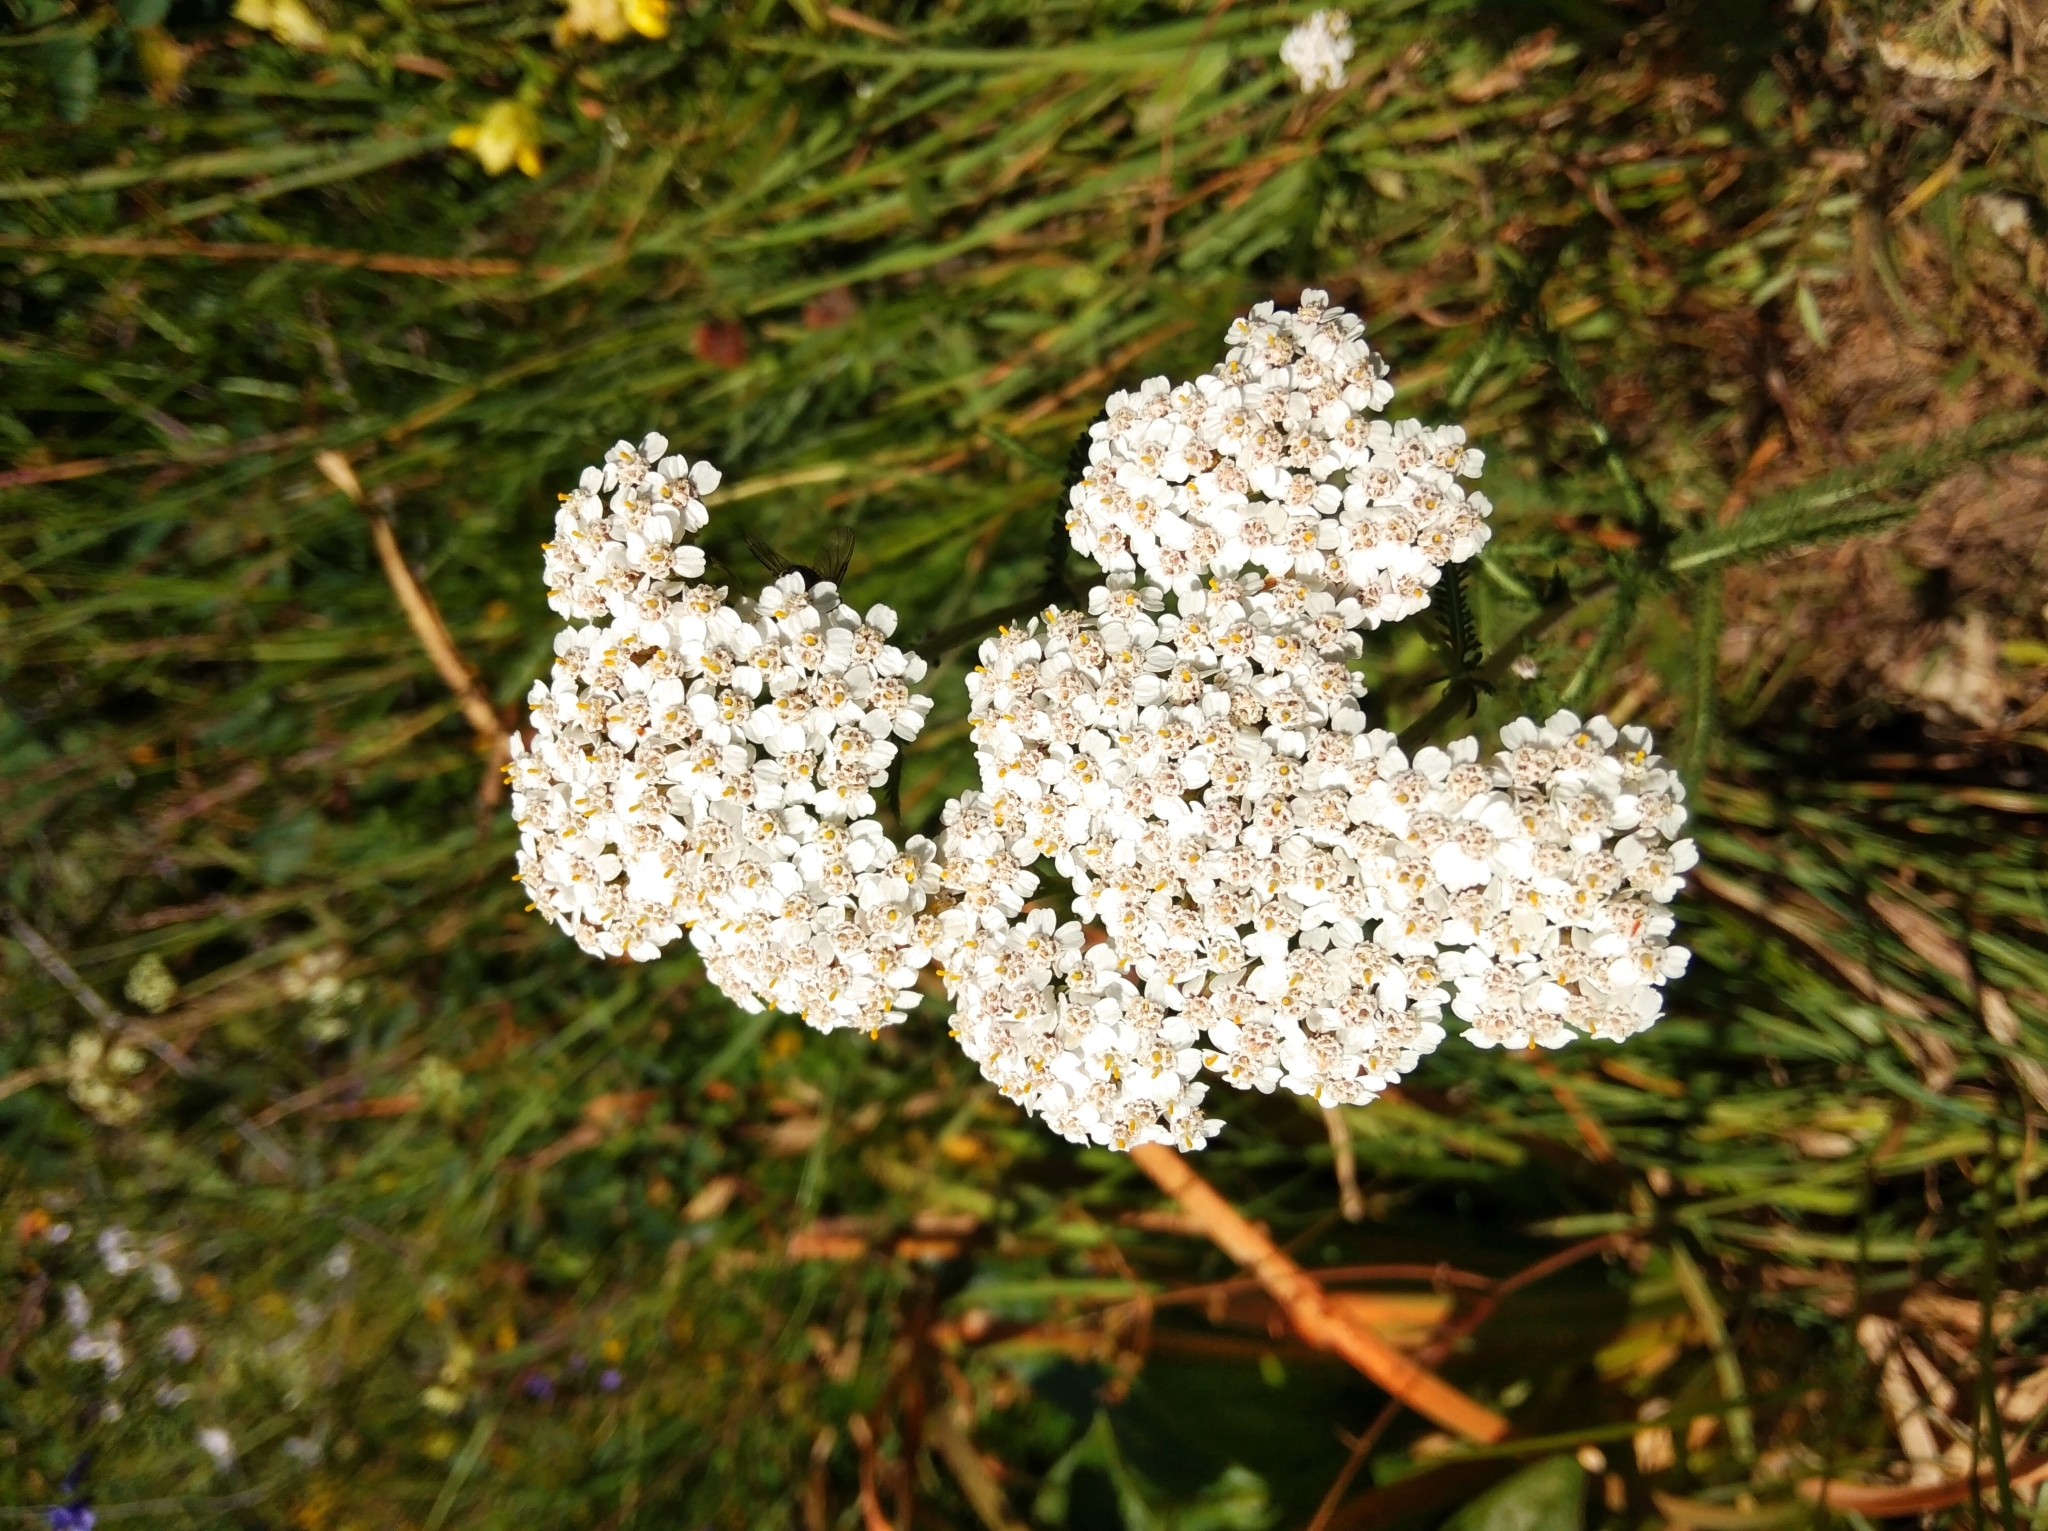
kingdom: Plantae
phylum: Tracheophyta
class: Magnoliopsida
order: Asterales
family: Asteraceae
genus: Achillea
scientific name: Achillea millefolium
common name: Yarrow
